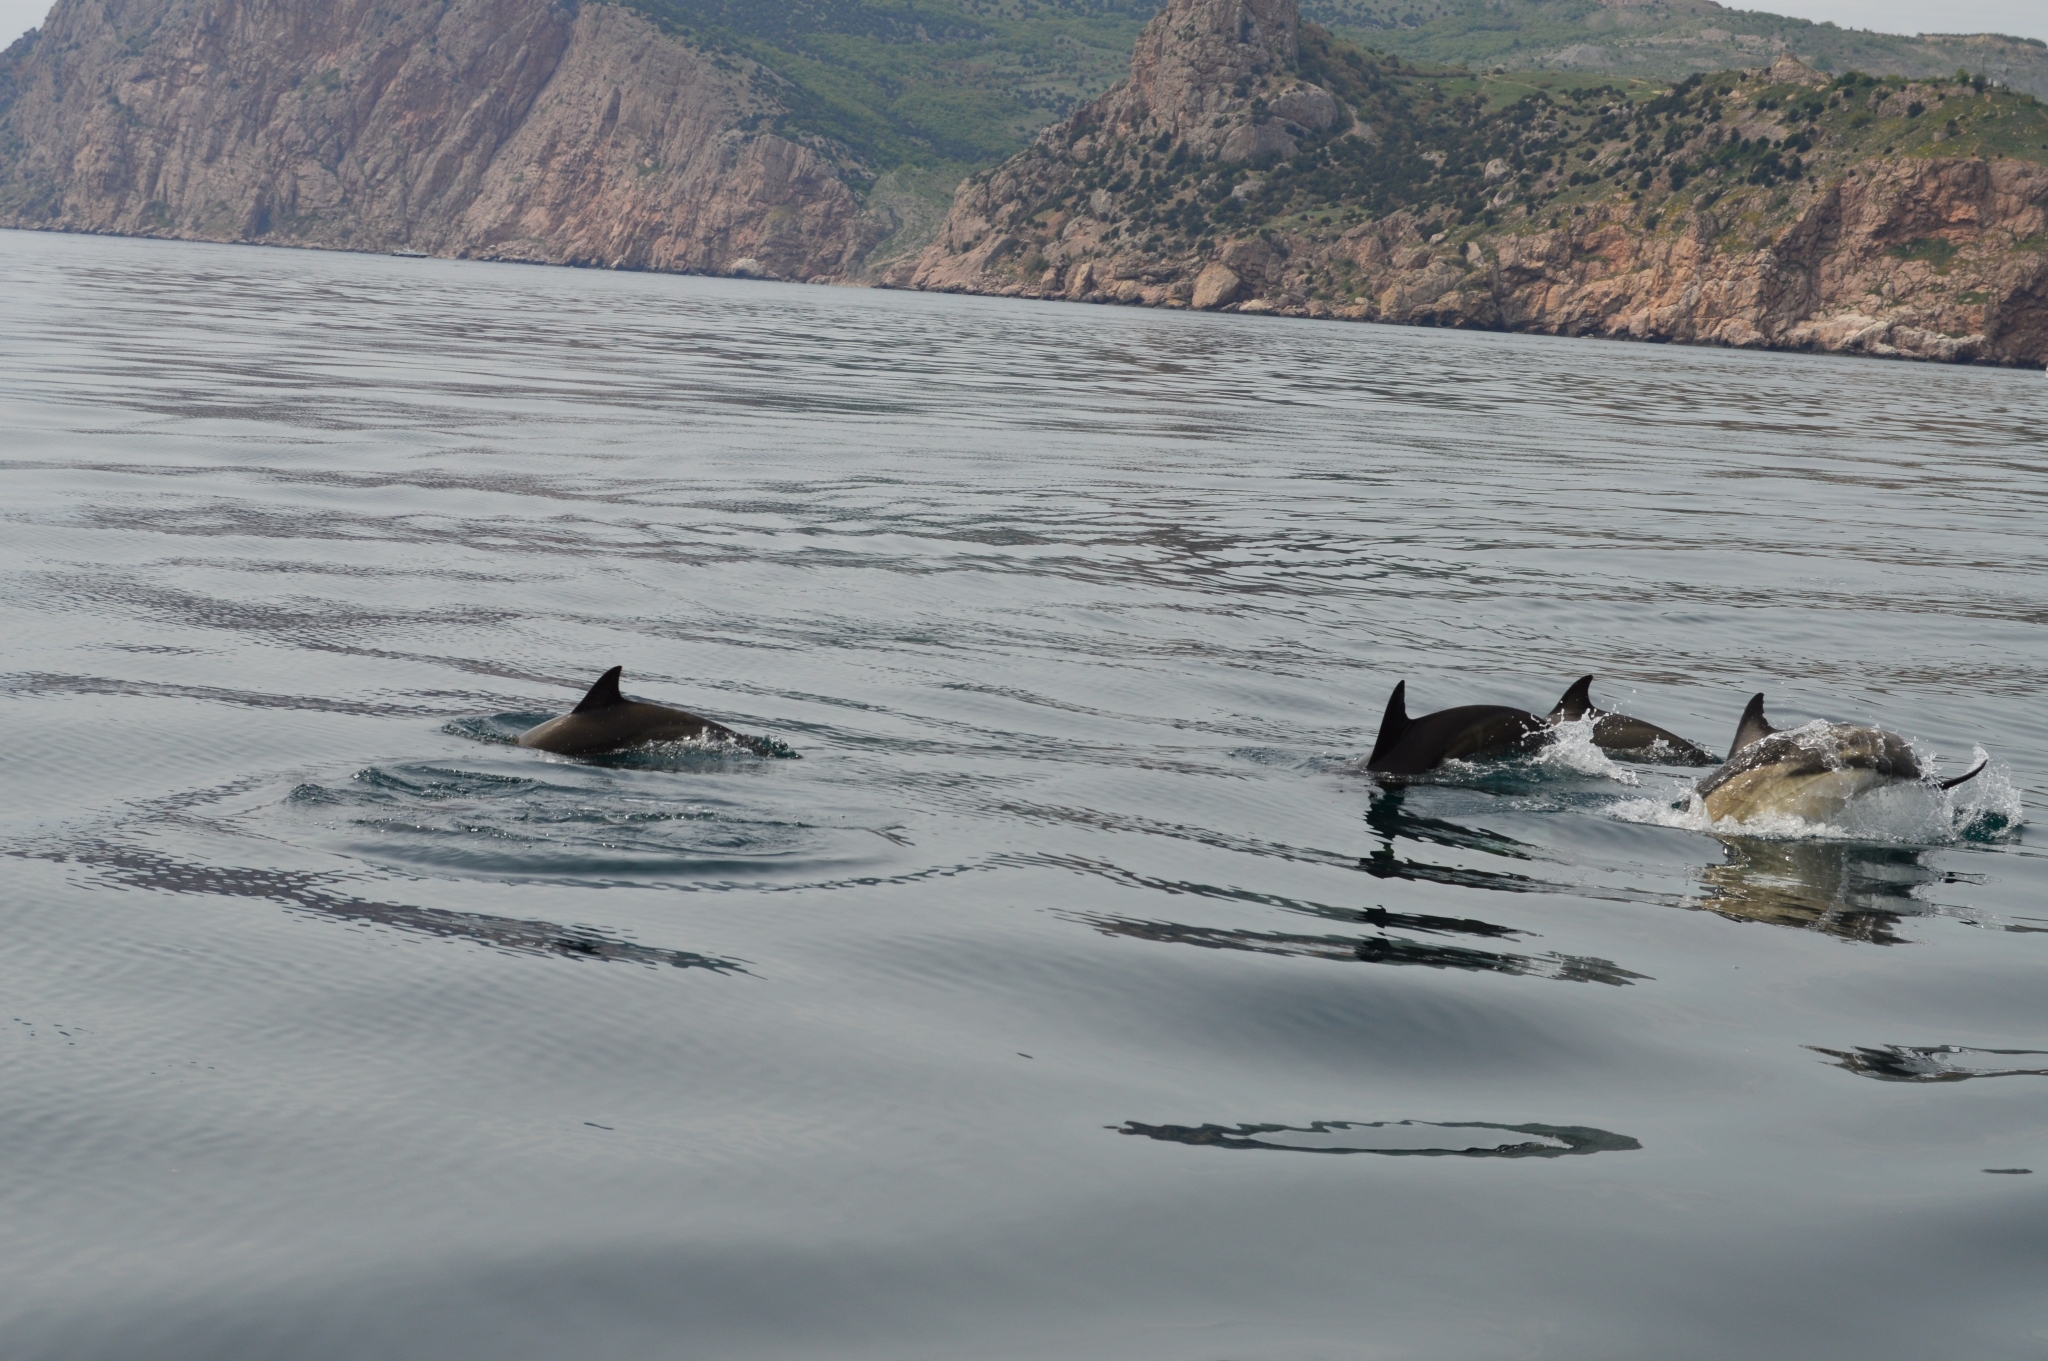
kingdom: Animalia
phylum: Chordata
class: Mammalia
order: Cetacea
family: Delphinidae
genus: Delphinus
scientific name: Delphinus delphis
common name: Common dolphin
